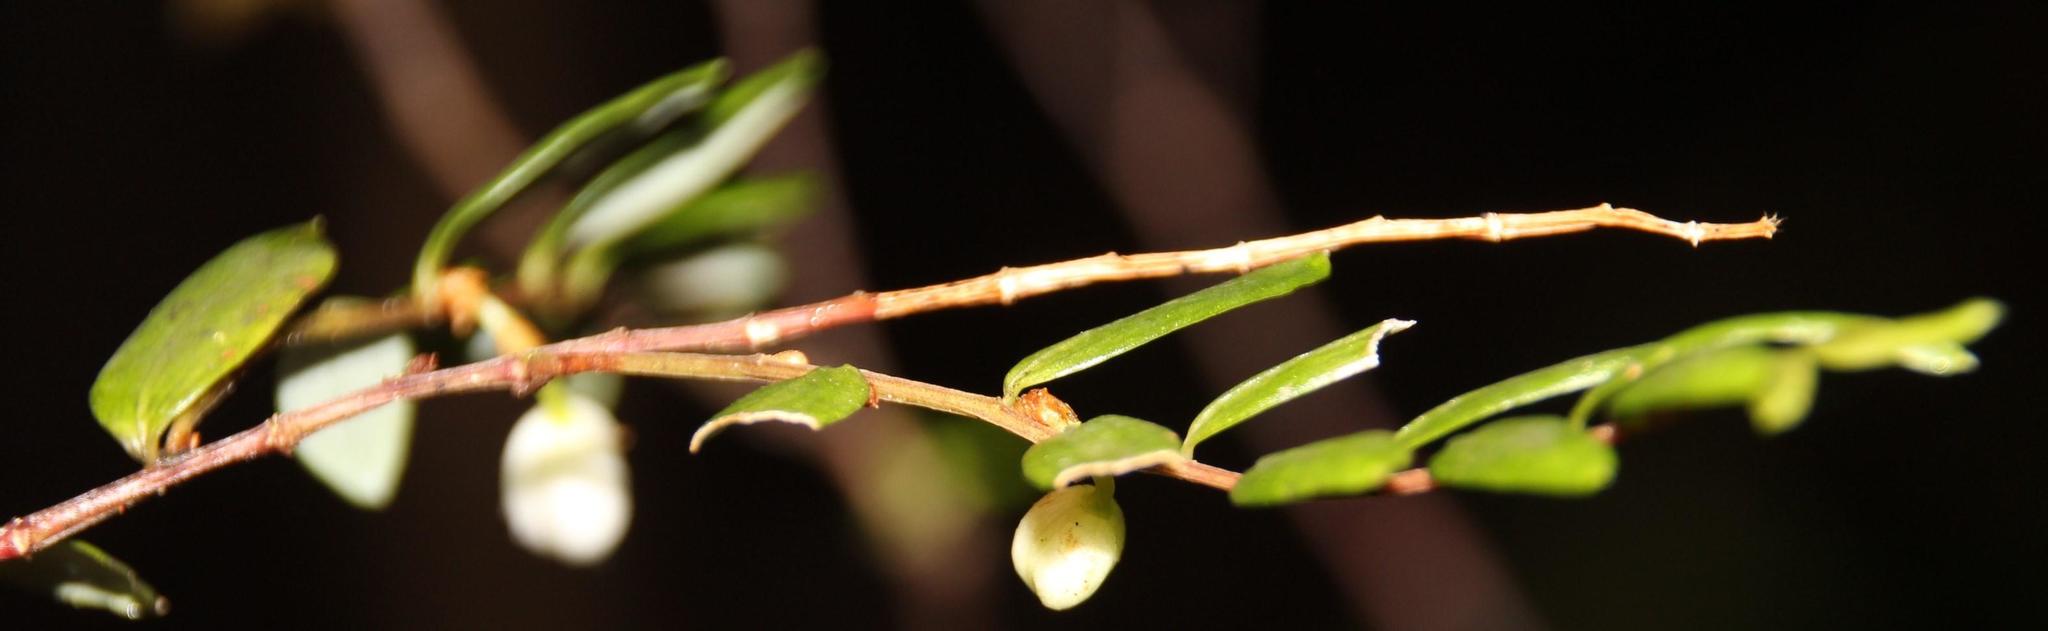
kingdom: Plantae
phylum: Tracheophyta
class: Liliopsida
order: Liliales
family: Alstroemeriaceae
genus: Luzuriaga
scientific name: Luzuriaga polyphylla
